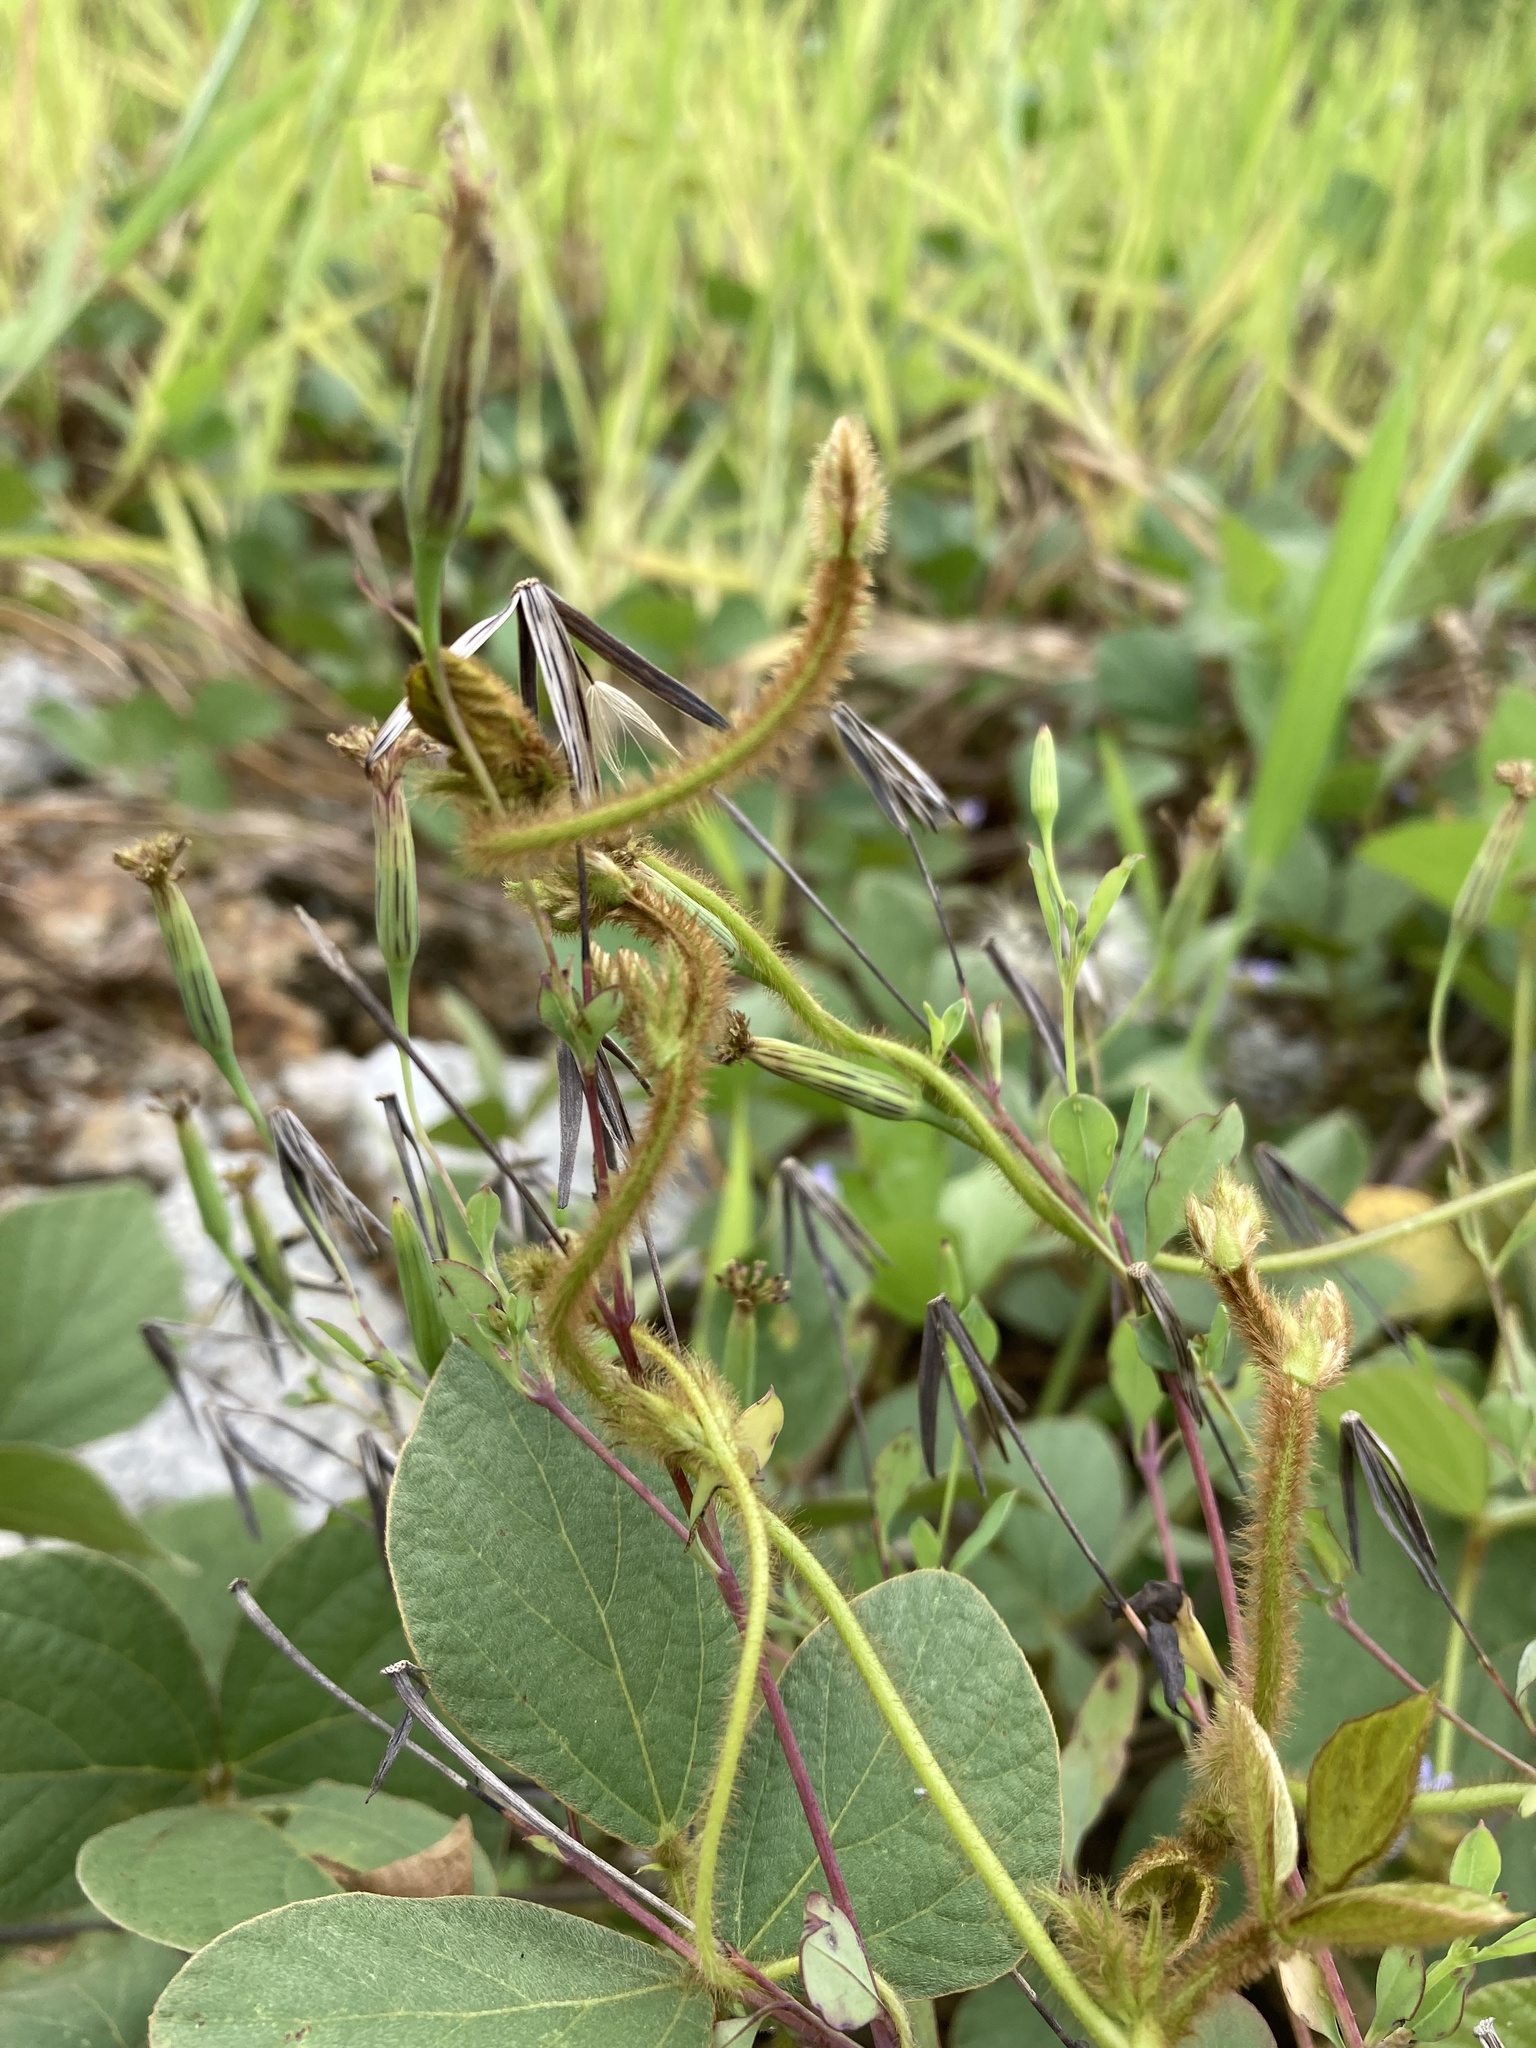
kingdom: Plantae
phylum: Tracheophyta
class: Magnoliopsida
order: Fabales
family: Fabaceae
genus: Calopogonium
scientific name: Calopogonium mucunoides
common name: Calopo
